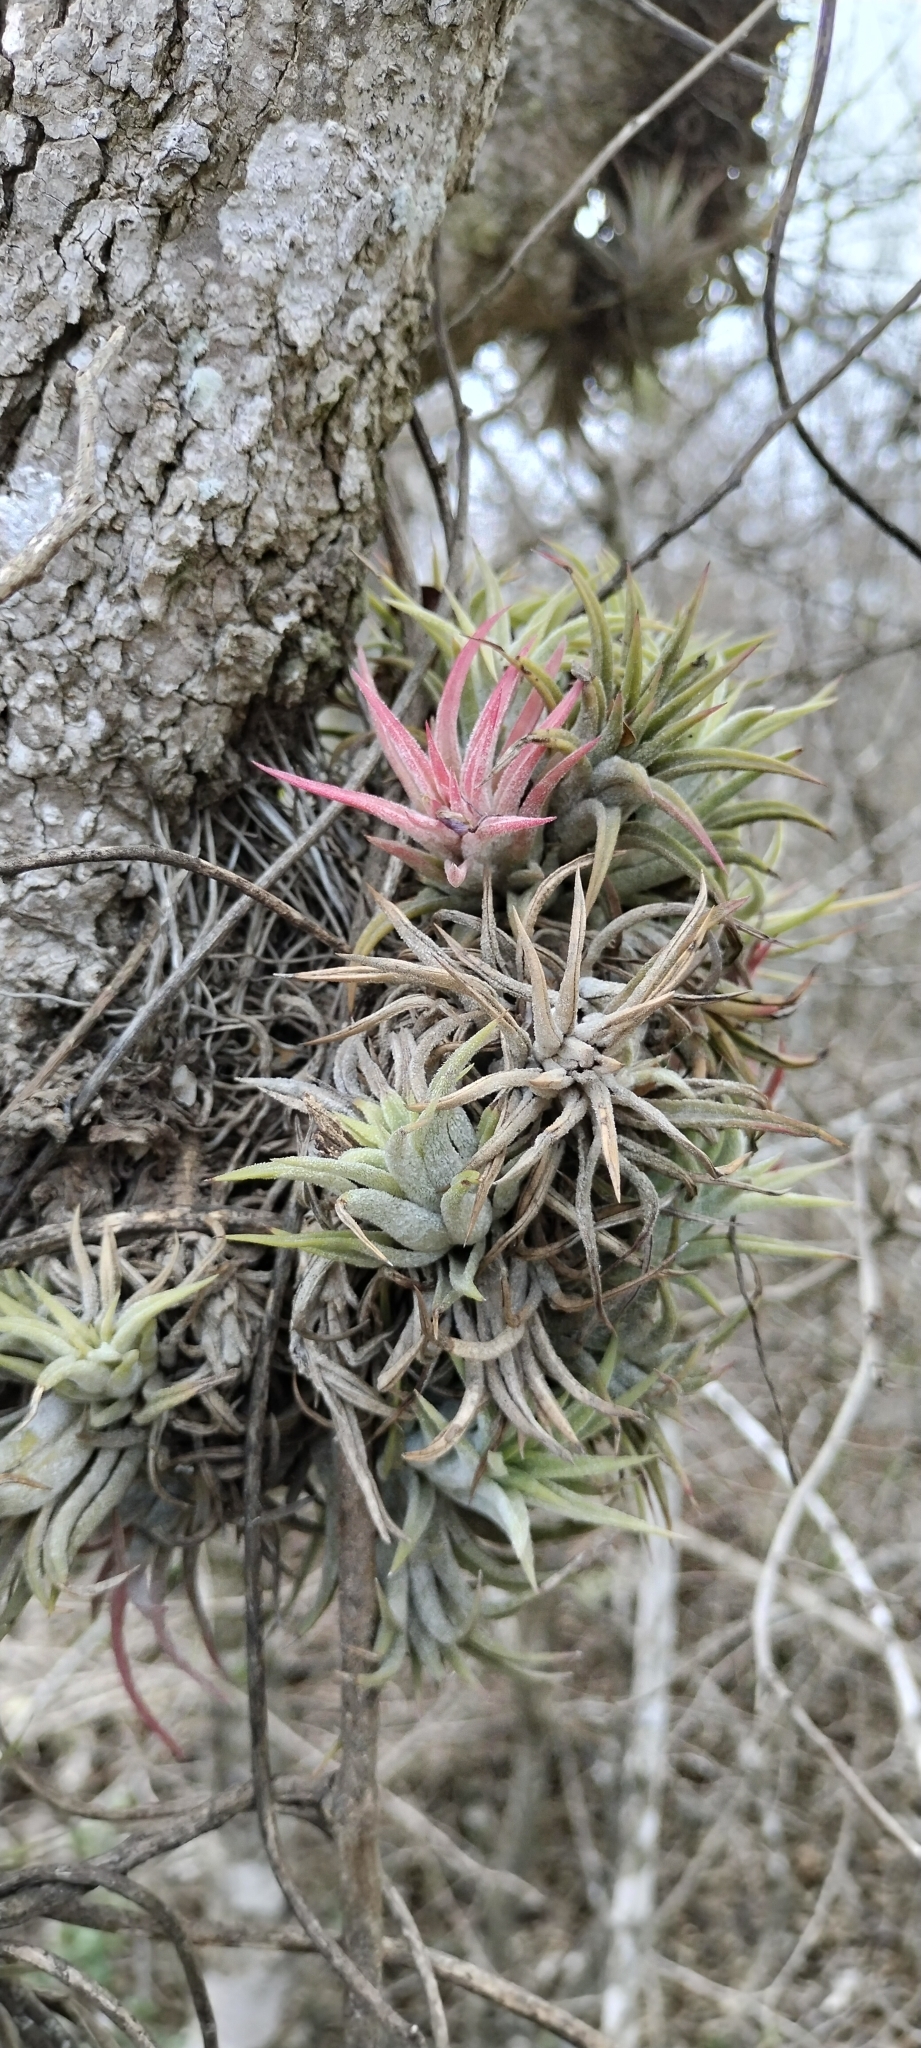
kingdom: Plantae
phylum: Tracheophyta
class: Liliopsida
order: Poales
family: Bromeliaceae
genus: Tillandsia
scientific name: Tillandsia ionantha
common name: Sky plant
